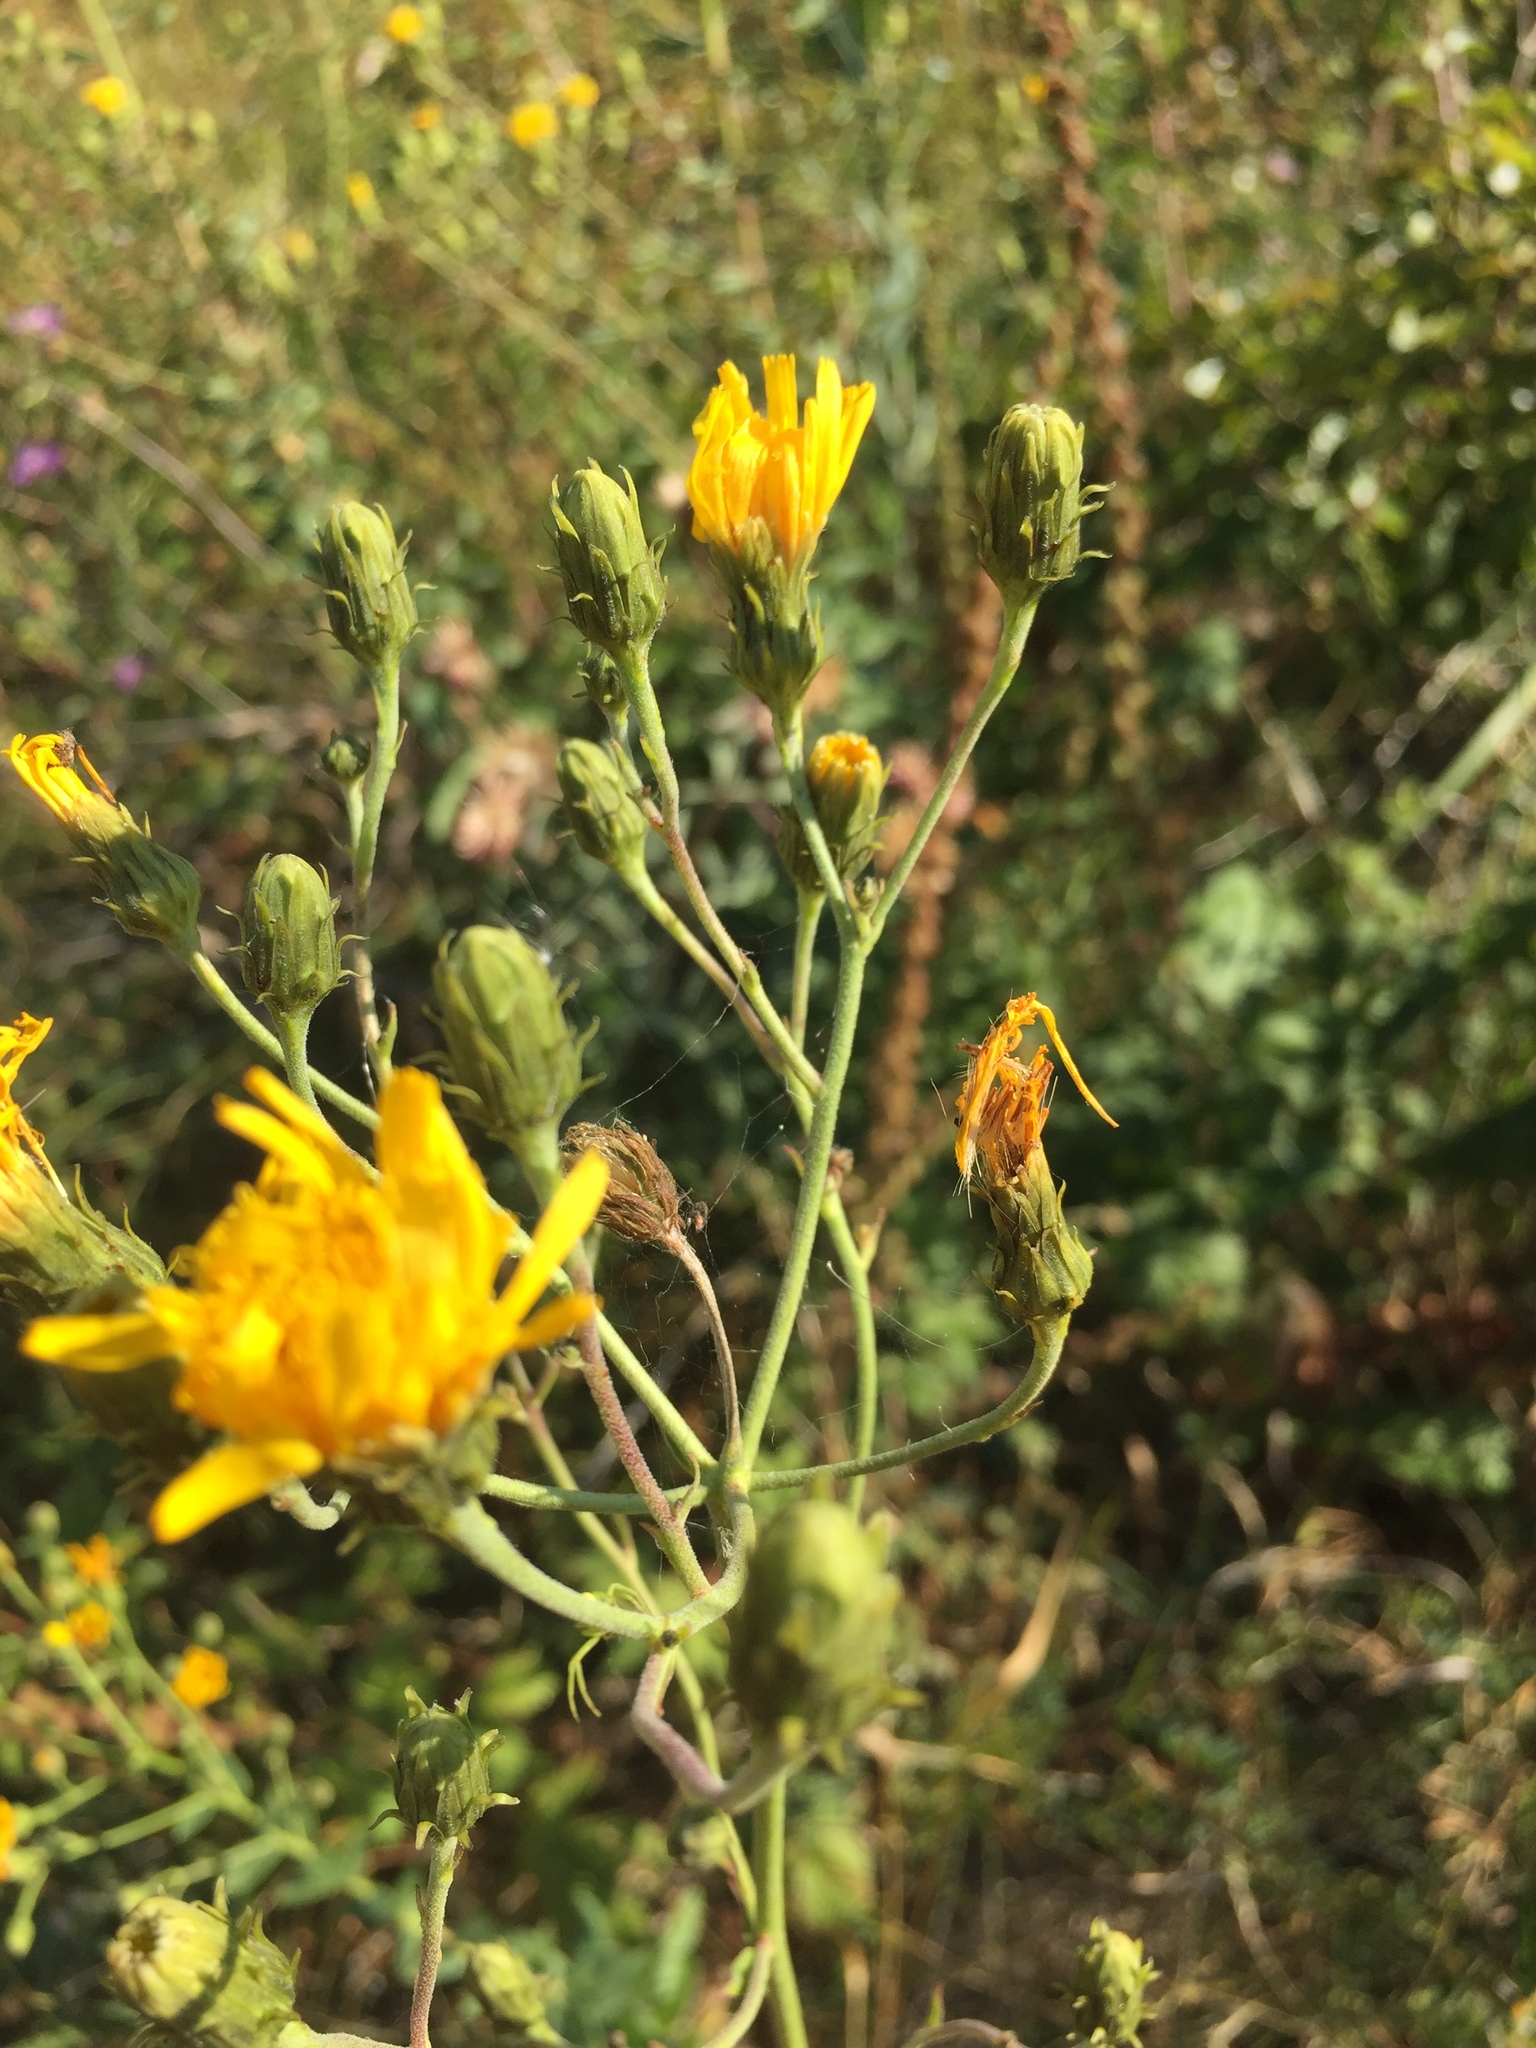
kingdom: Plantae
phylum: Tracheophyta
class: Magnoliopsida
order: Asterales
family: Asteraceae
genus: Hieracium
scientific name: Hieracium umbellatum
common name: Northern hawkweed
